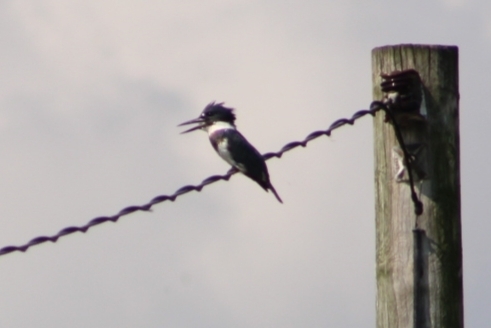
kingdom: Animalia
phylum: Chordata
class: Aves
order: Coraciiformes
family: Alcedinidae
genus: Megaceryle
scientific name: Megaceryle alcyon
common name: Belted kingfisher
